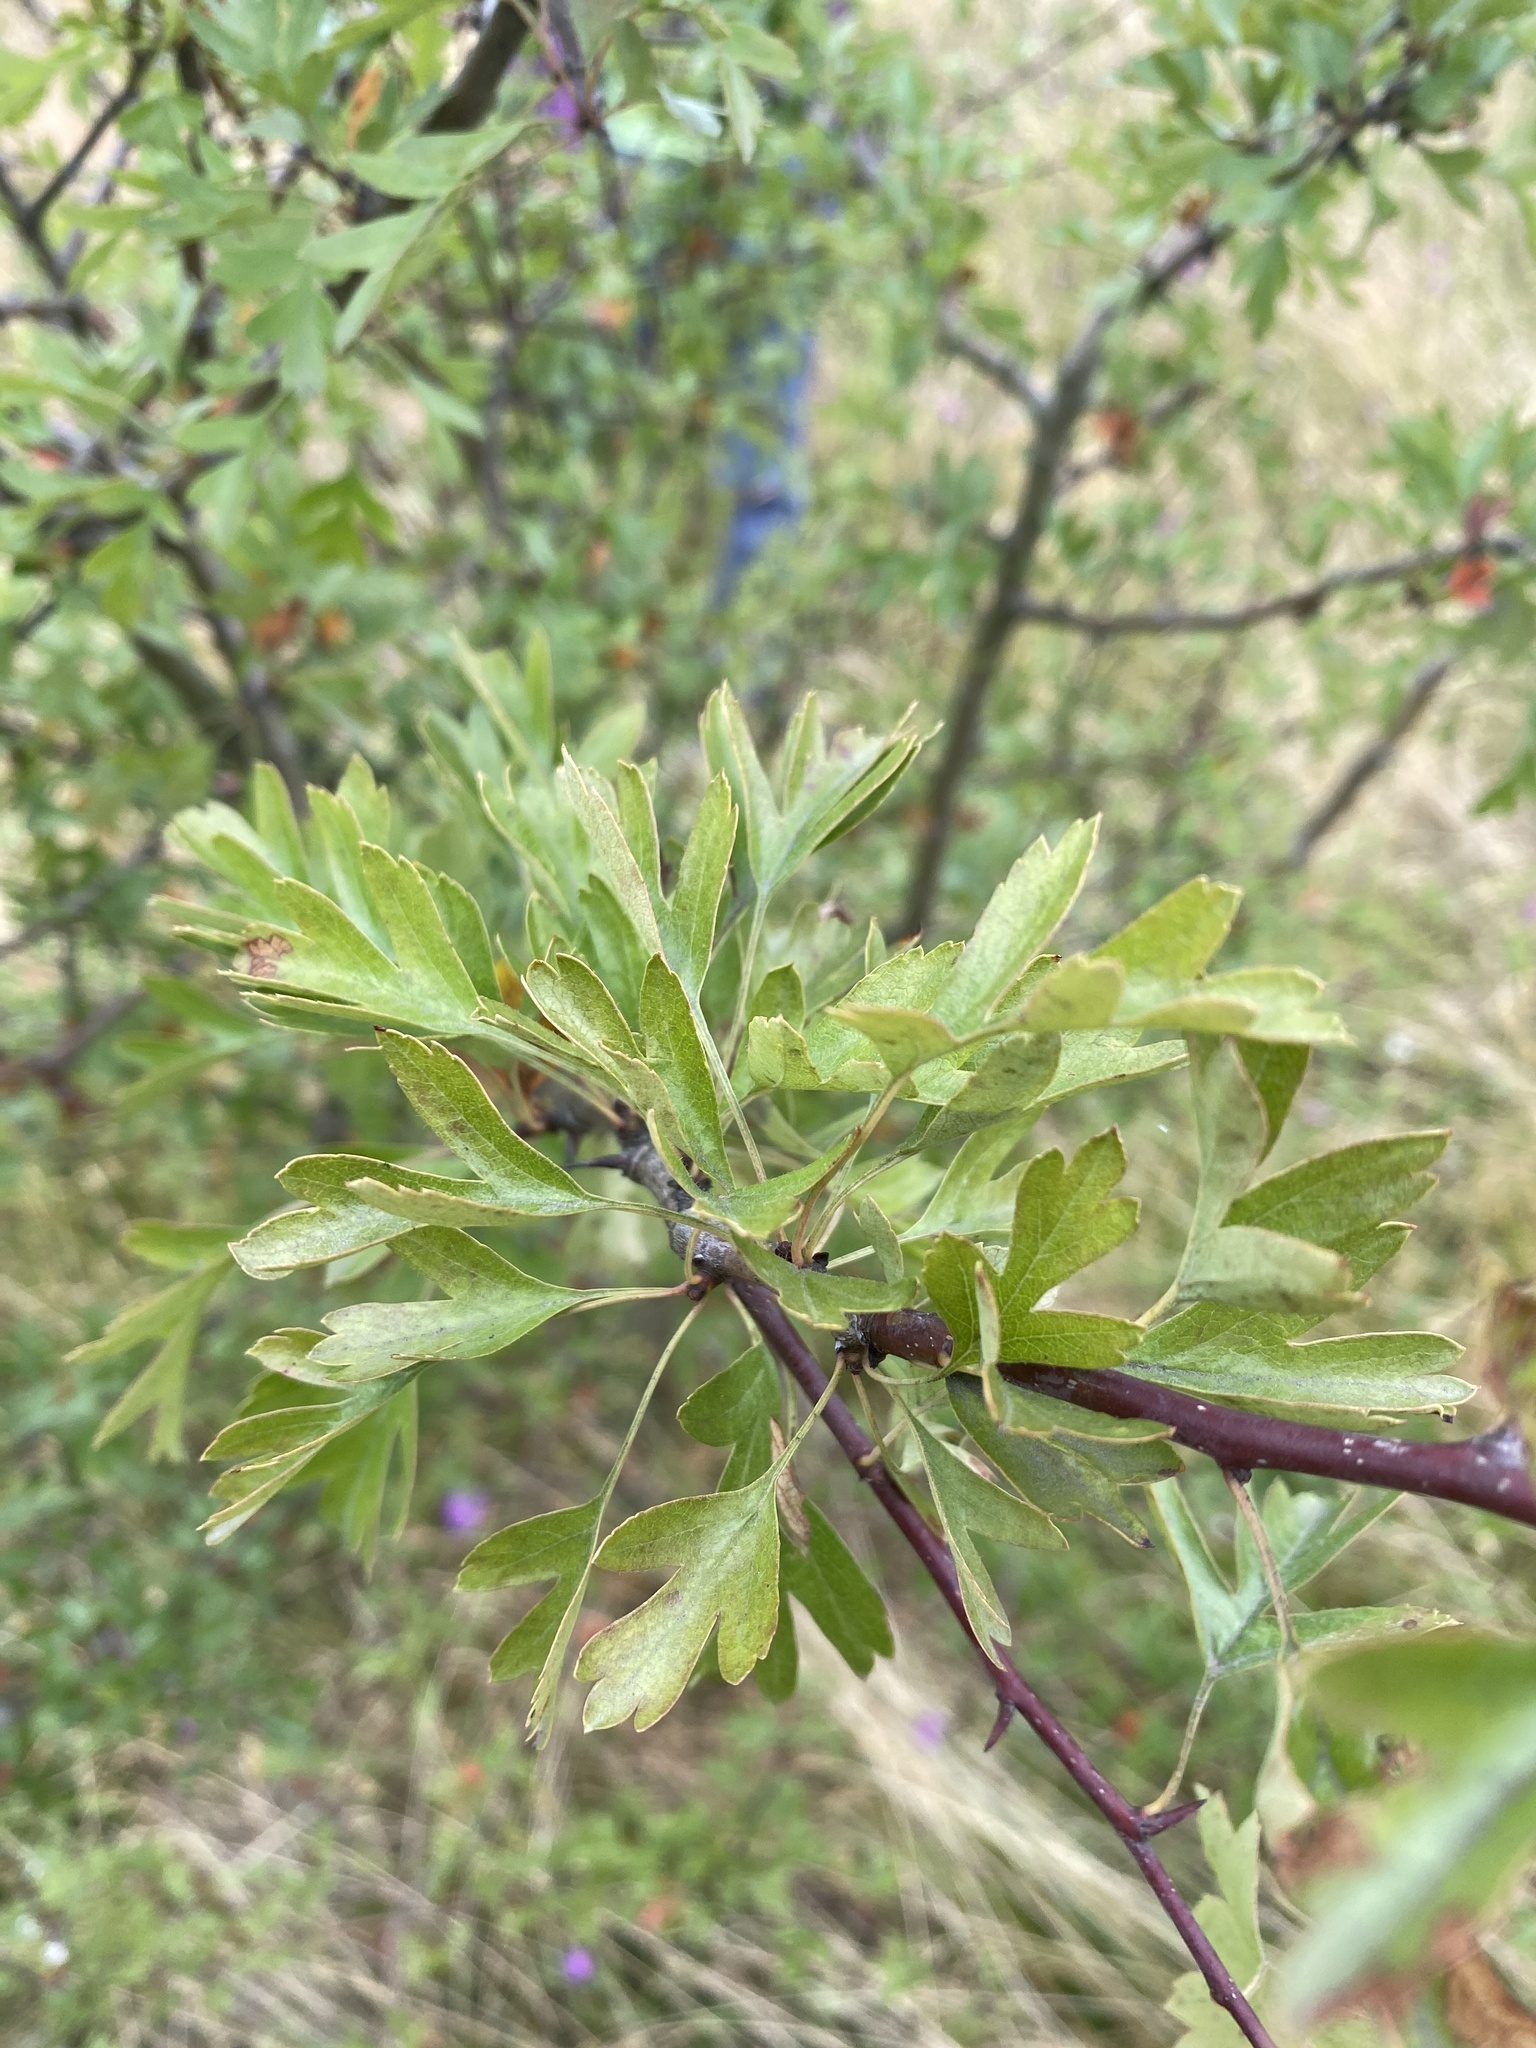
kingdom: Plantae
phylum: Tracheophyta
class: Magnoliopsida
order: Rosales
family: Rosaceae
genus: Crataegus
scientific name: Crataegus monogyna
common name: Hawthorn
